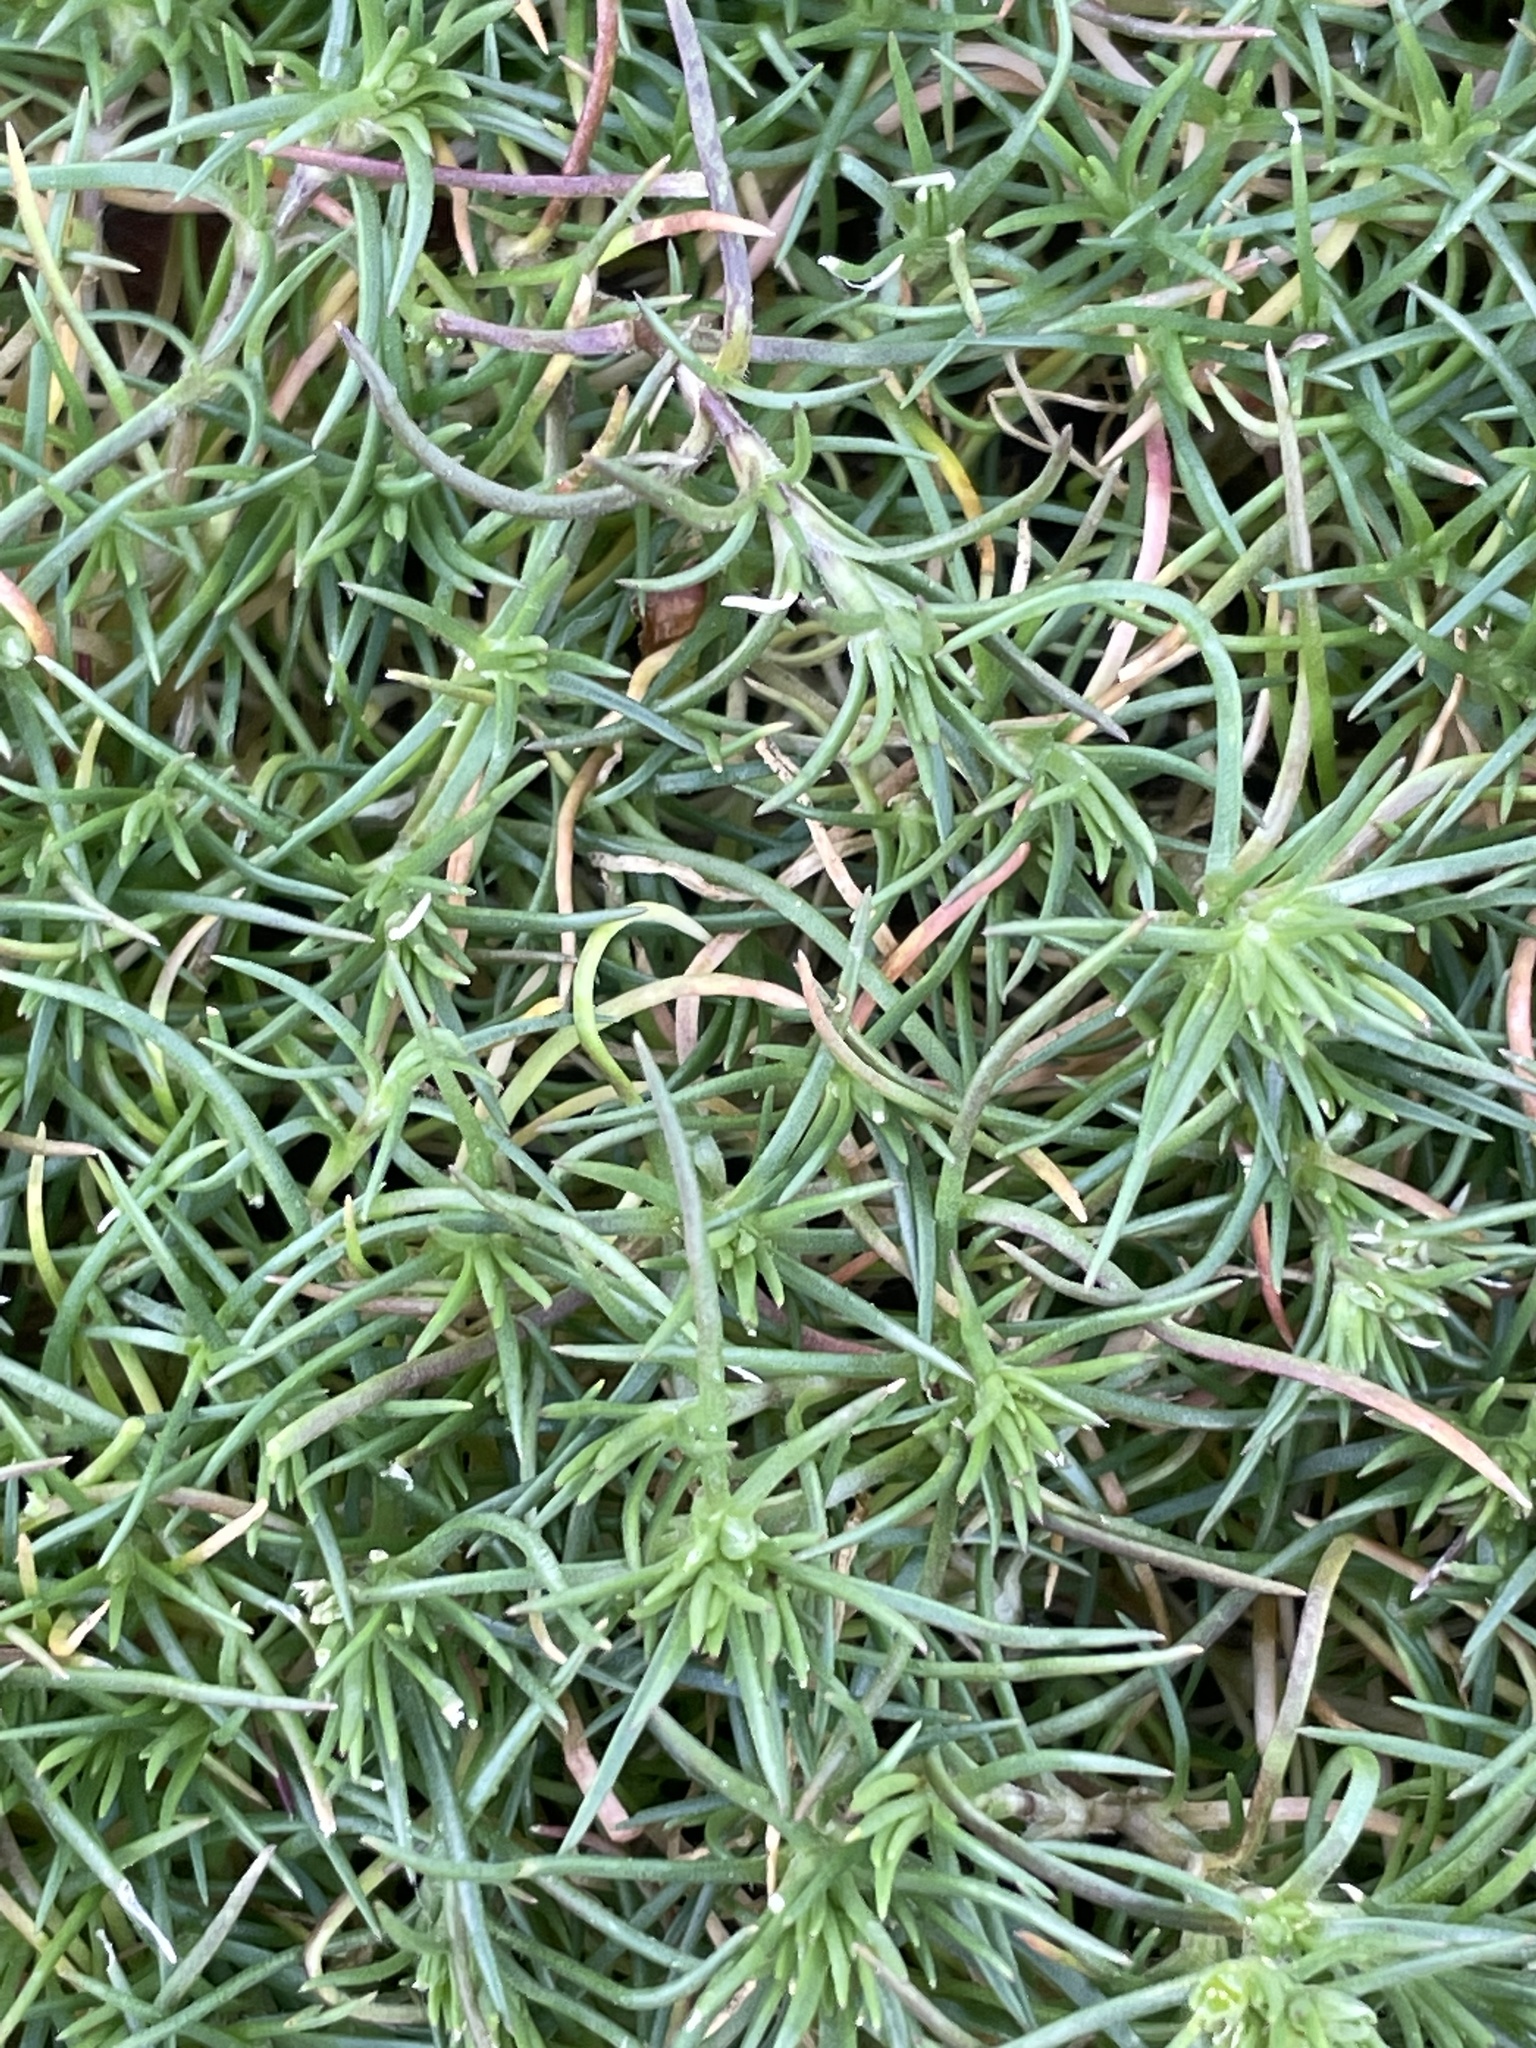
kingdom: Plantae
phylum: Tracheophyta
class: Magnoliopsida
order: Caryophyllales
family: Caryophyllaceae
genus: Scleranthus
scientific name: Scleranthus annuus
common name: Annual knawel
